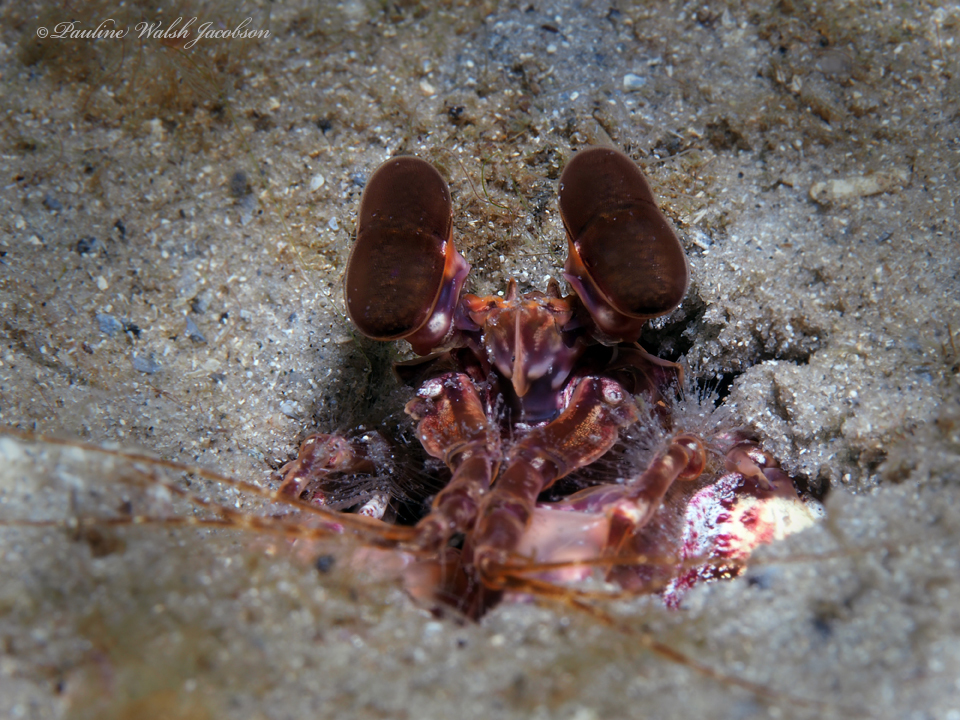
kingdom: Animalia
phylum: Arthropoda
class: Malacostraca
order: Stomatopoda
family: Lysiosquillidae
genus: Lysiosquilla
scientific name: Lysiosquilla glabriuscula
